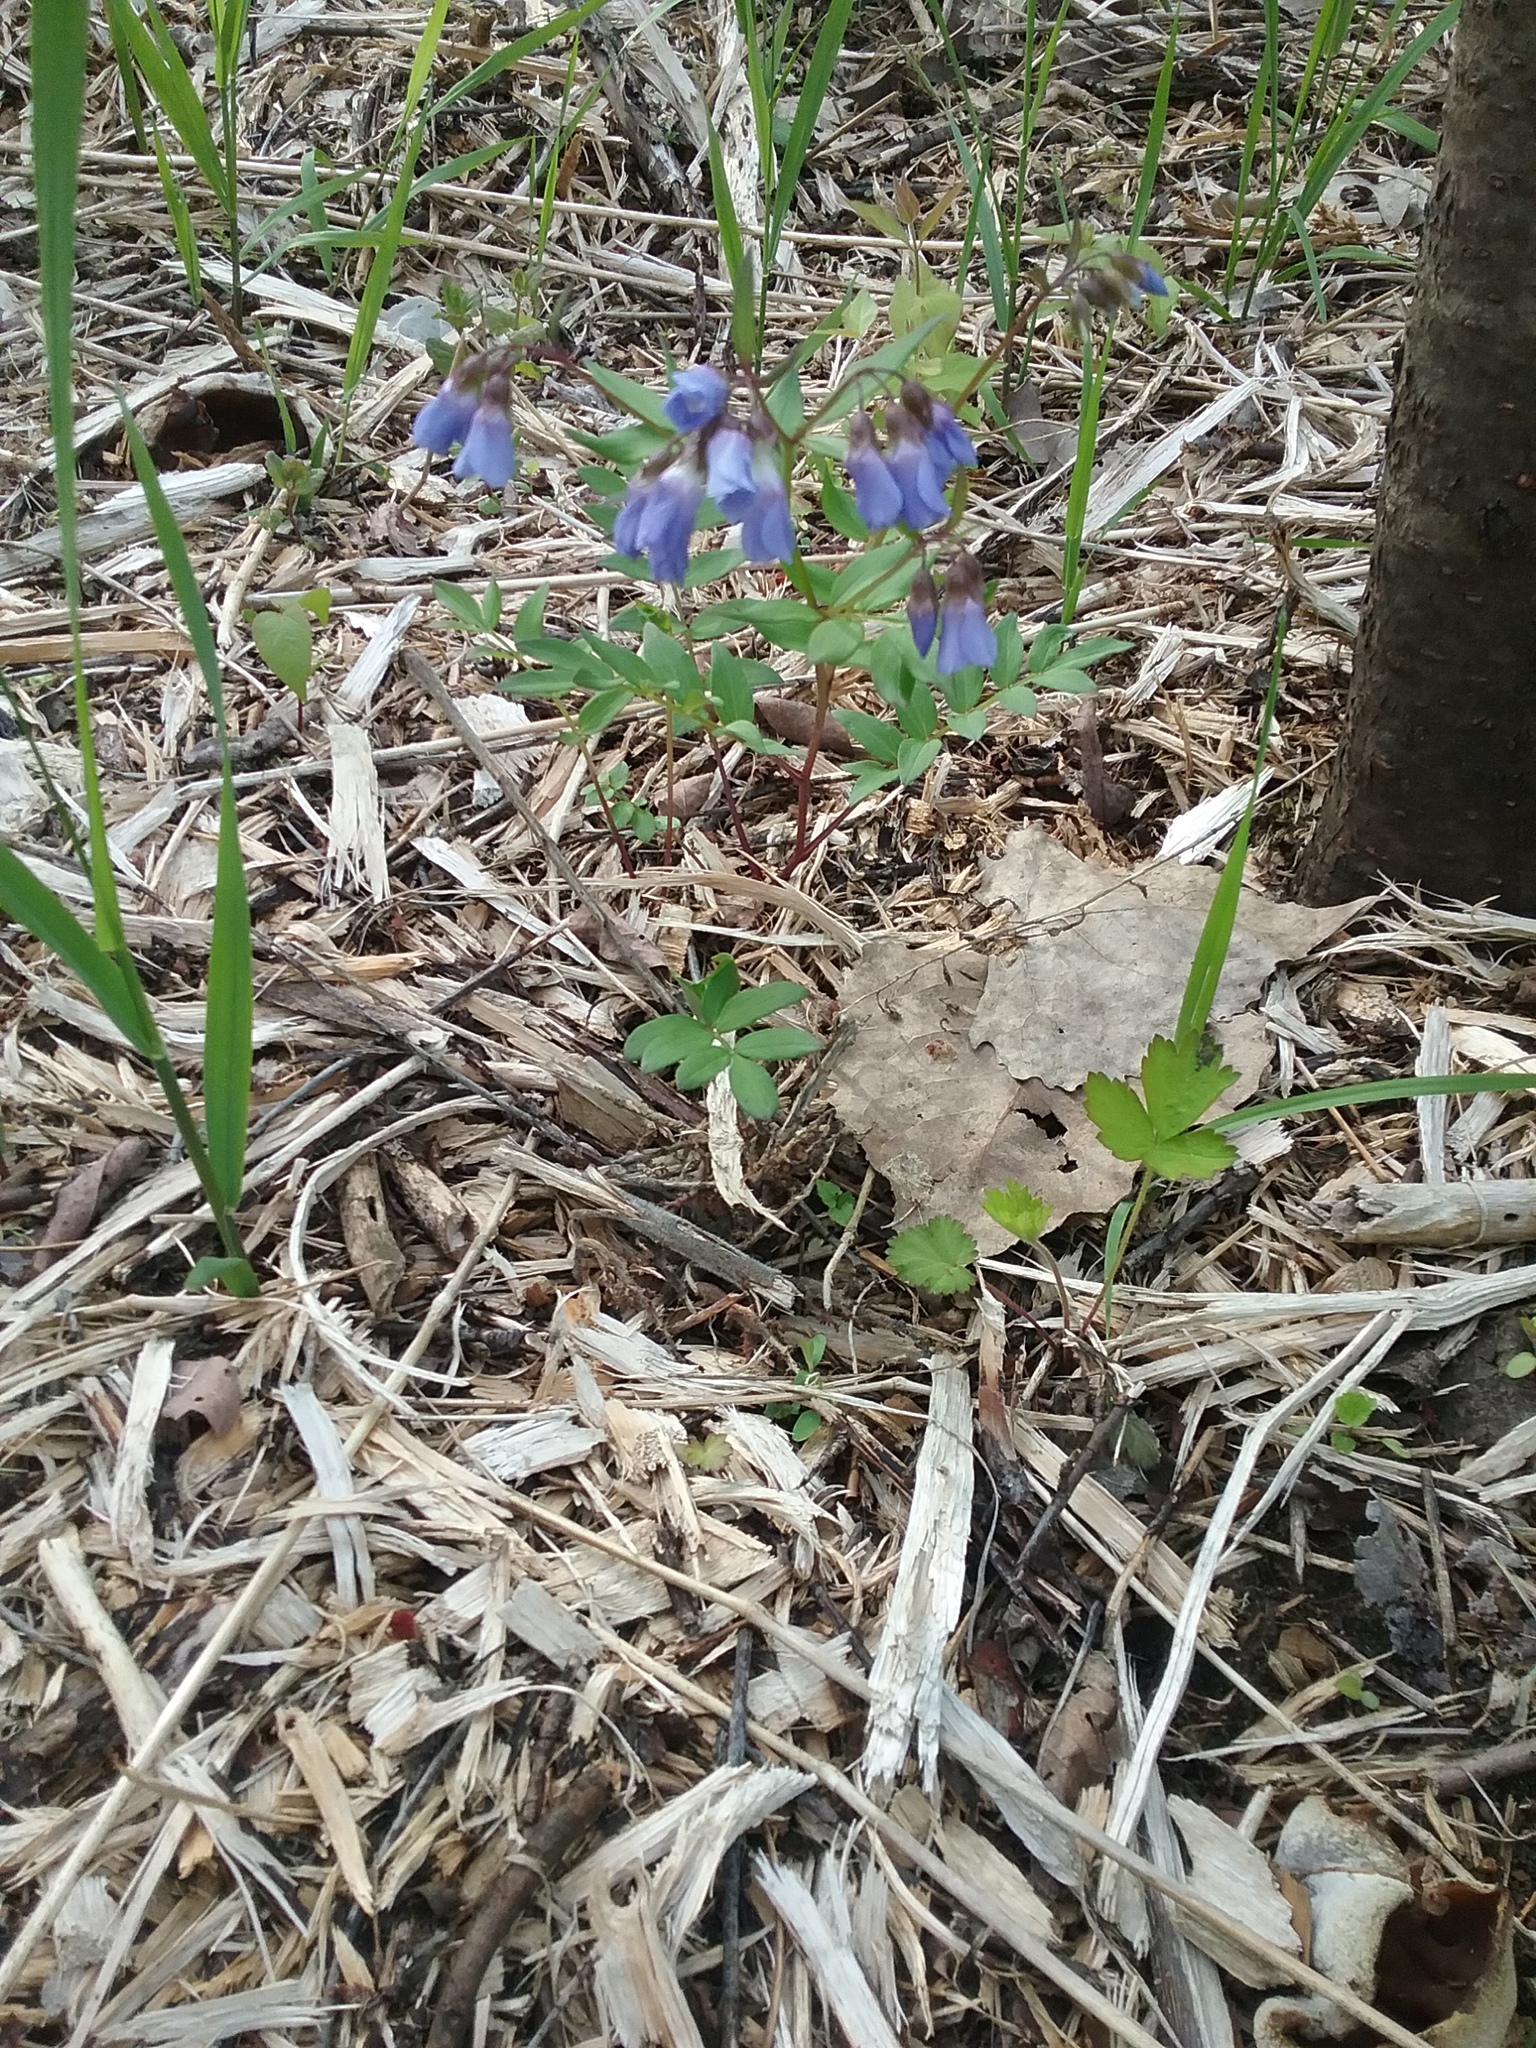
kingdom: Plantae
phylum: Tracheophyta
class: Magnoliopsida
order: Ericales
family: Polemoniaceae
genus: Polemonium
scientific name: Polemonium reptans
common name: Creeping jacob's-ladder
